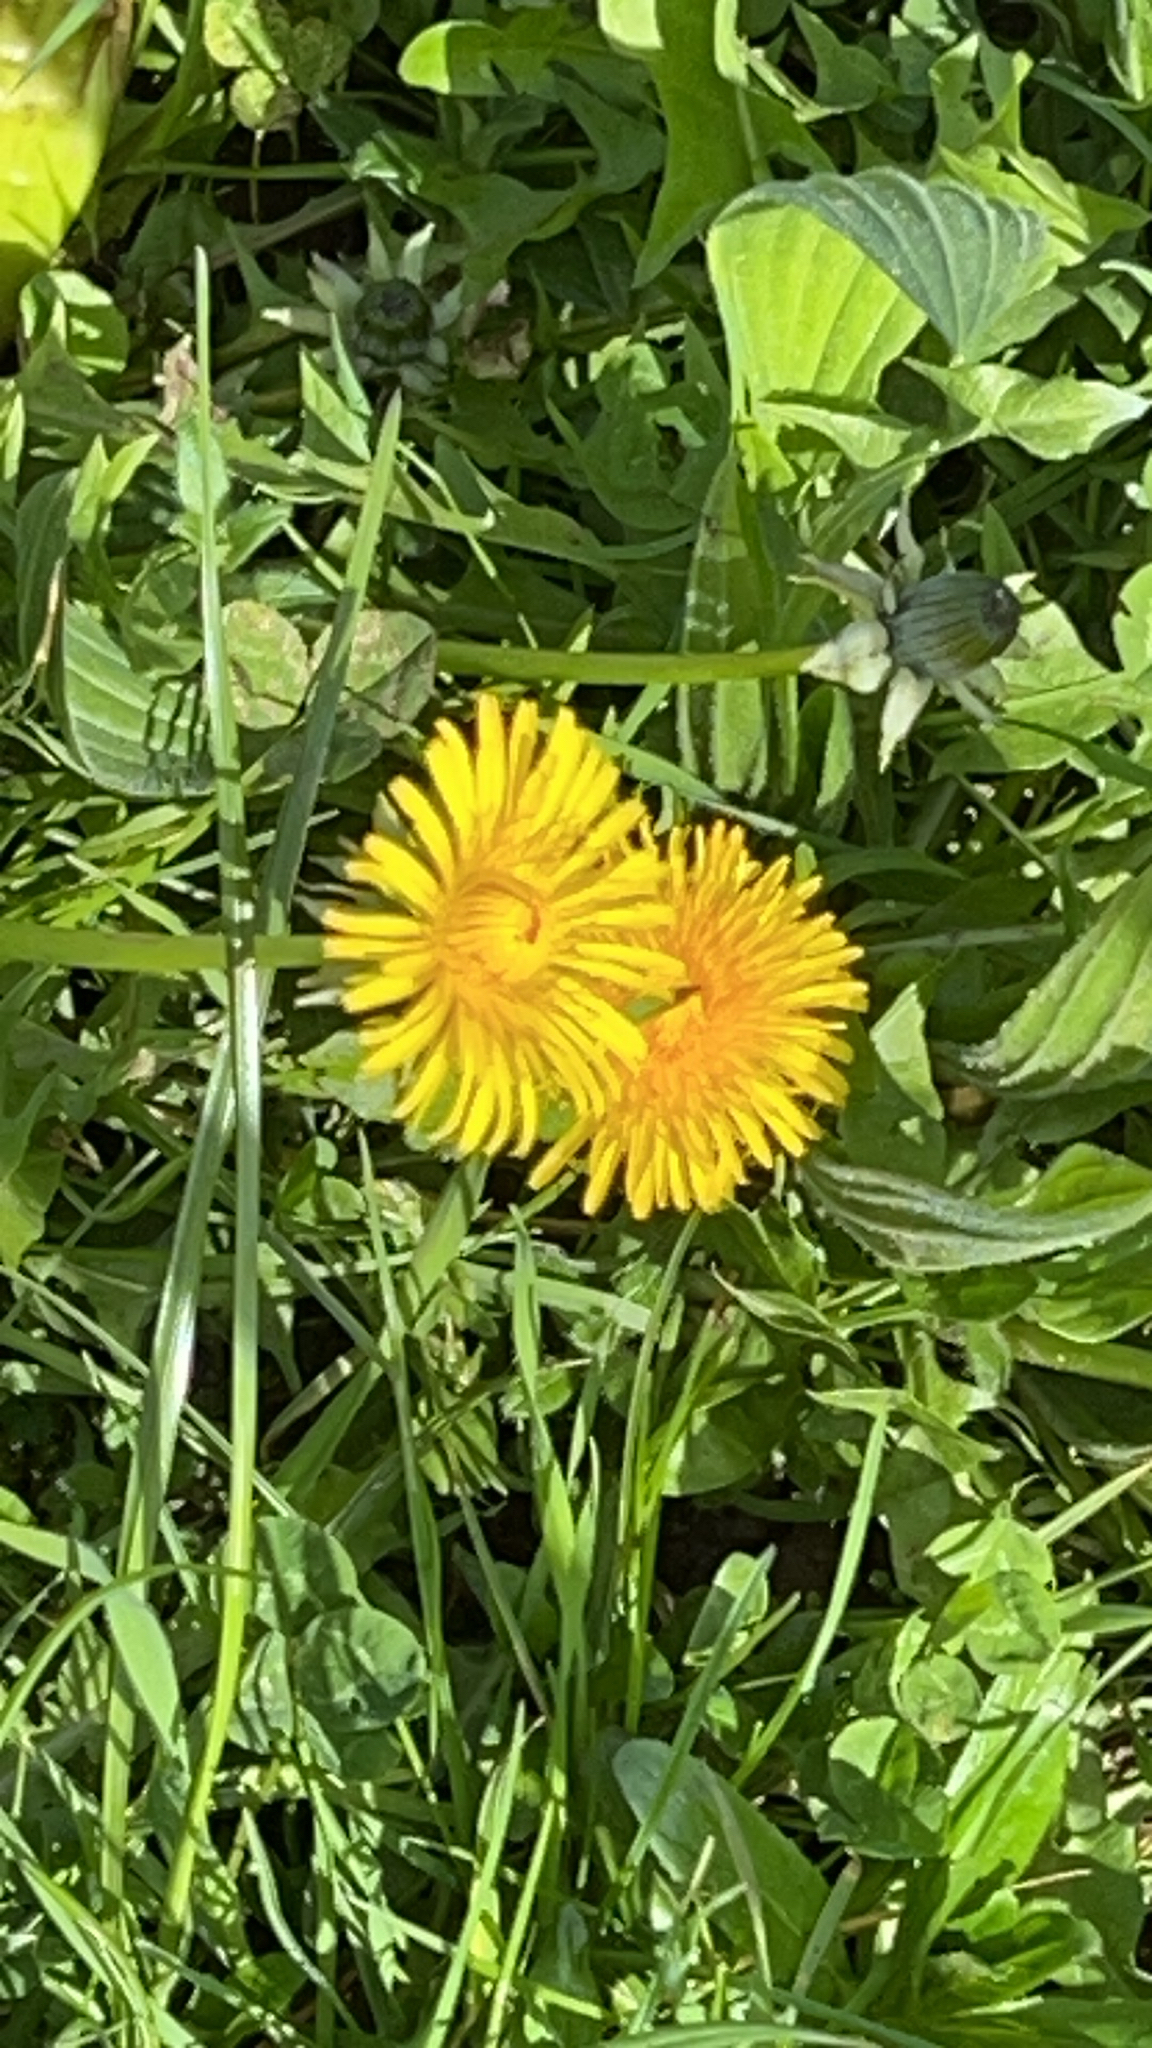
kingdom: Plantae
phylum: Tracheophyta
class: Magnoliopsida
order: Asterales
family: Asteraceae
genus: Taraxacum
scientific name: Taraxacum officinale
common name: Common dandelion
